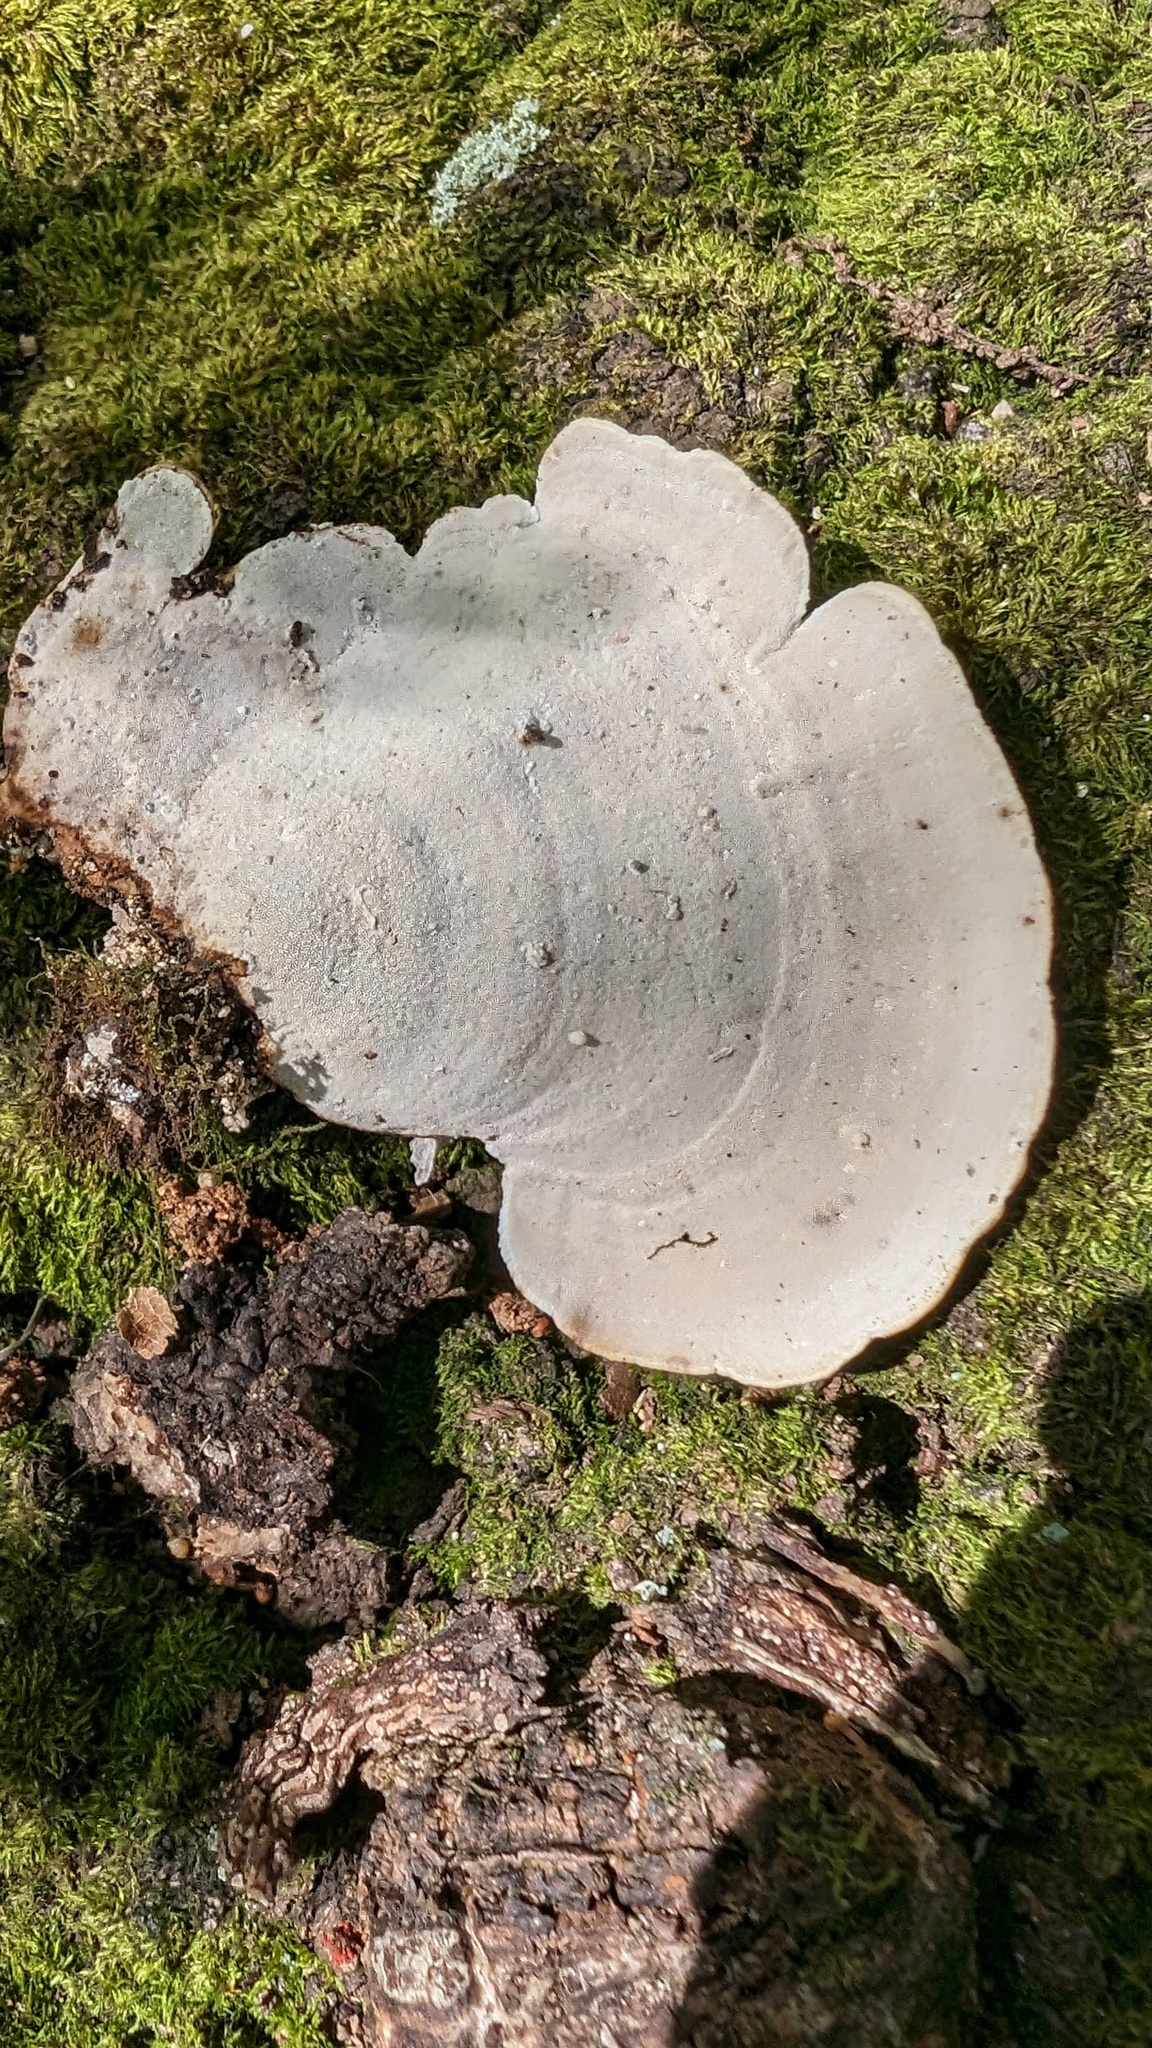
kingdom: Fungi
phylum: Basidiomycota
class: Agaricomycetes
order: Polyporales
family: Polyporaceae
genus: Microporus
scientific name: Microporus affinis
